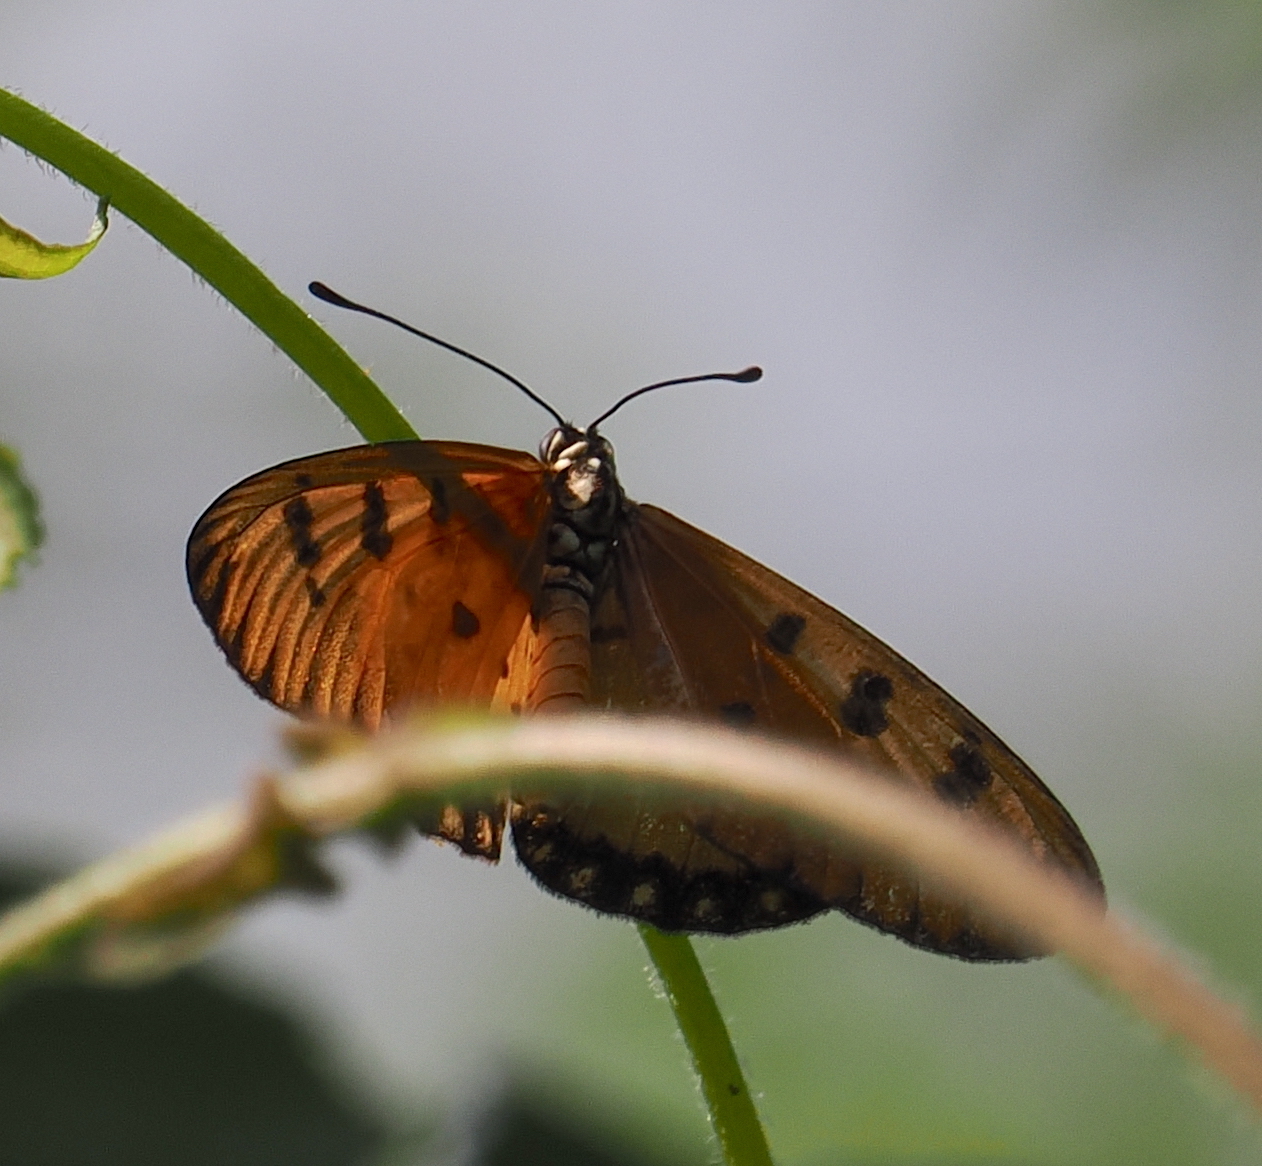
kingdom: Animalia
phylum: Arthropoda
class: Insecta
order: Lepidoptera
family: Nymphalidae
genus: Acraea
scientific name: Acraea terpsicore
